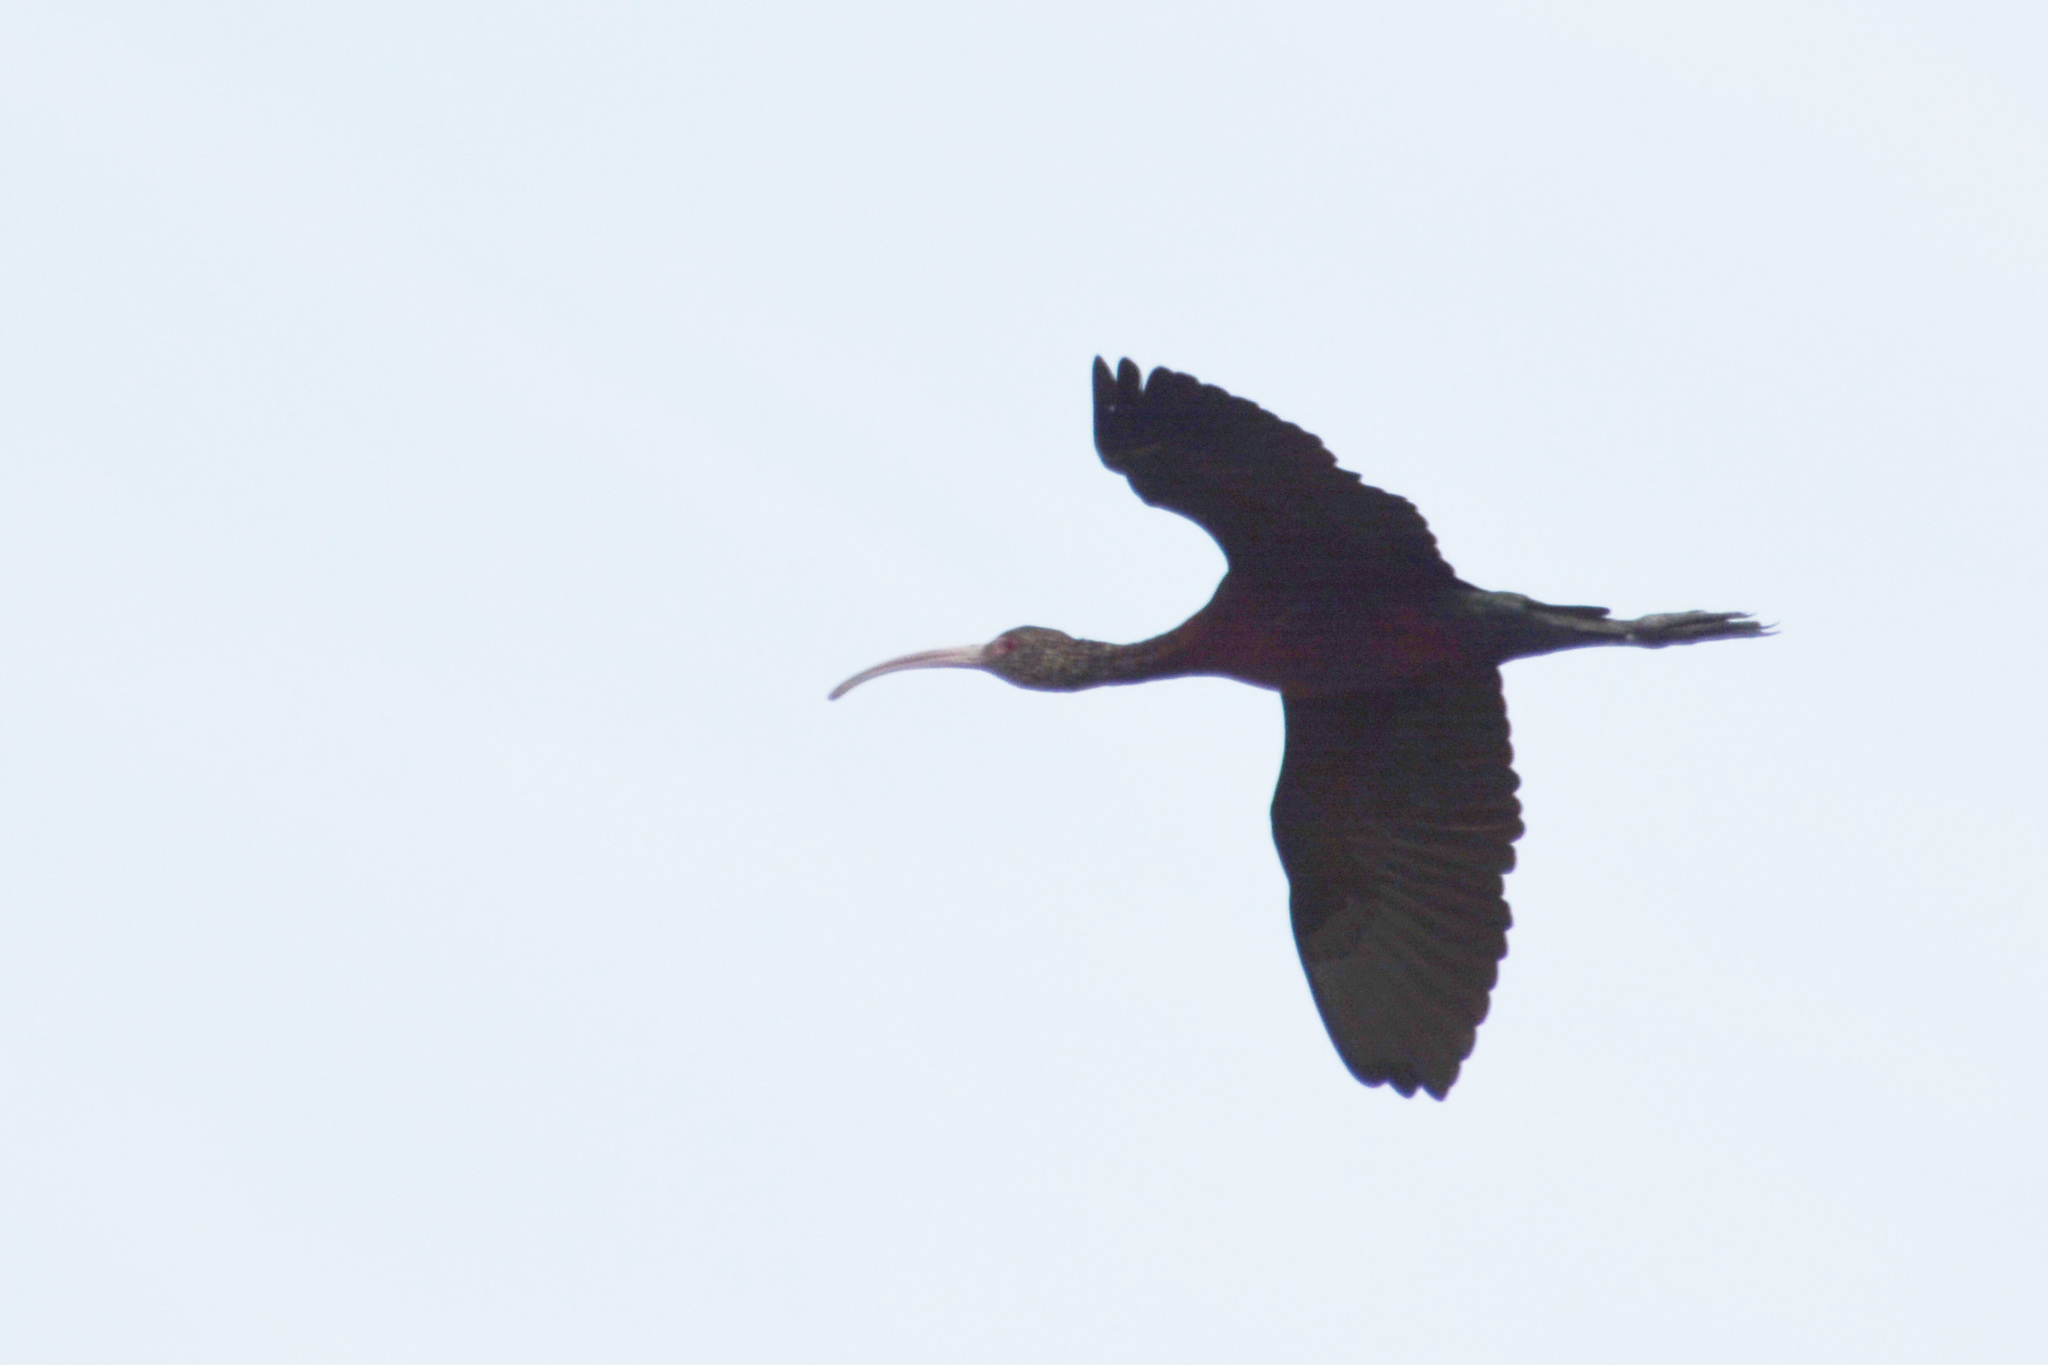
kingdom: Animalia
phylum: Chordata
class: Aves
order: Pelecaniformes
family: Threskiornithidae
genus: Plegadis
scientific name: Plegadis chihi
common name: White-faced ibis
